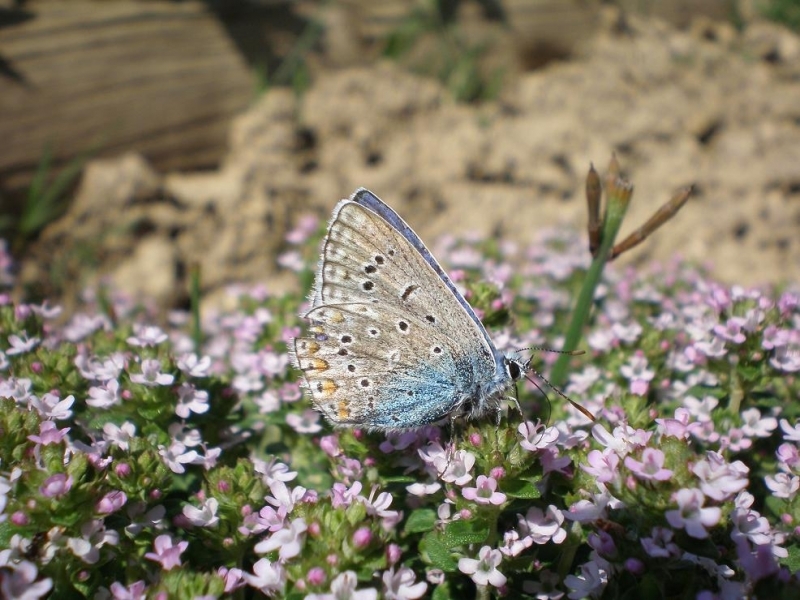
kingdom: Animalia
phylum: Arthropoda
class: Insecta
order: Lepidoptera
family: Lycaenidae
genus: Polyommatus
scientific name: Polyommatus icarus
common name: Common blue
